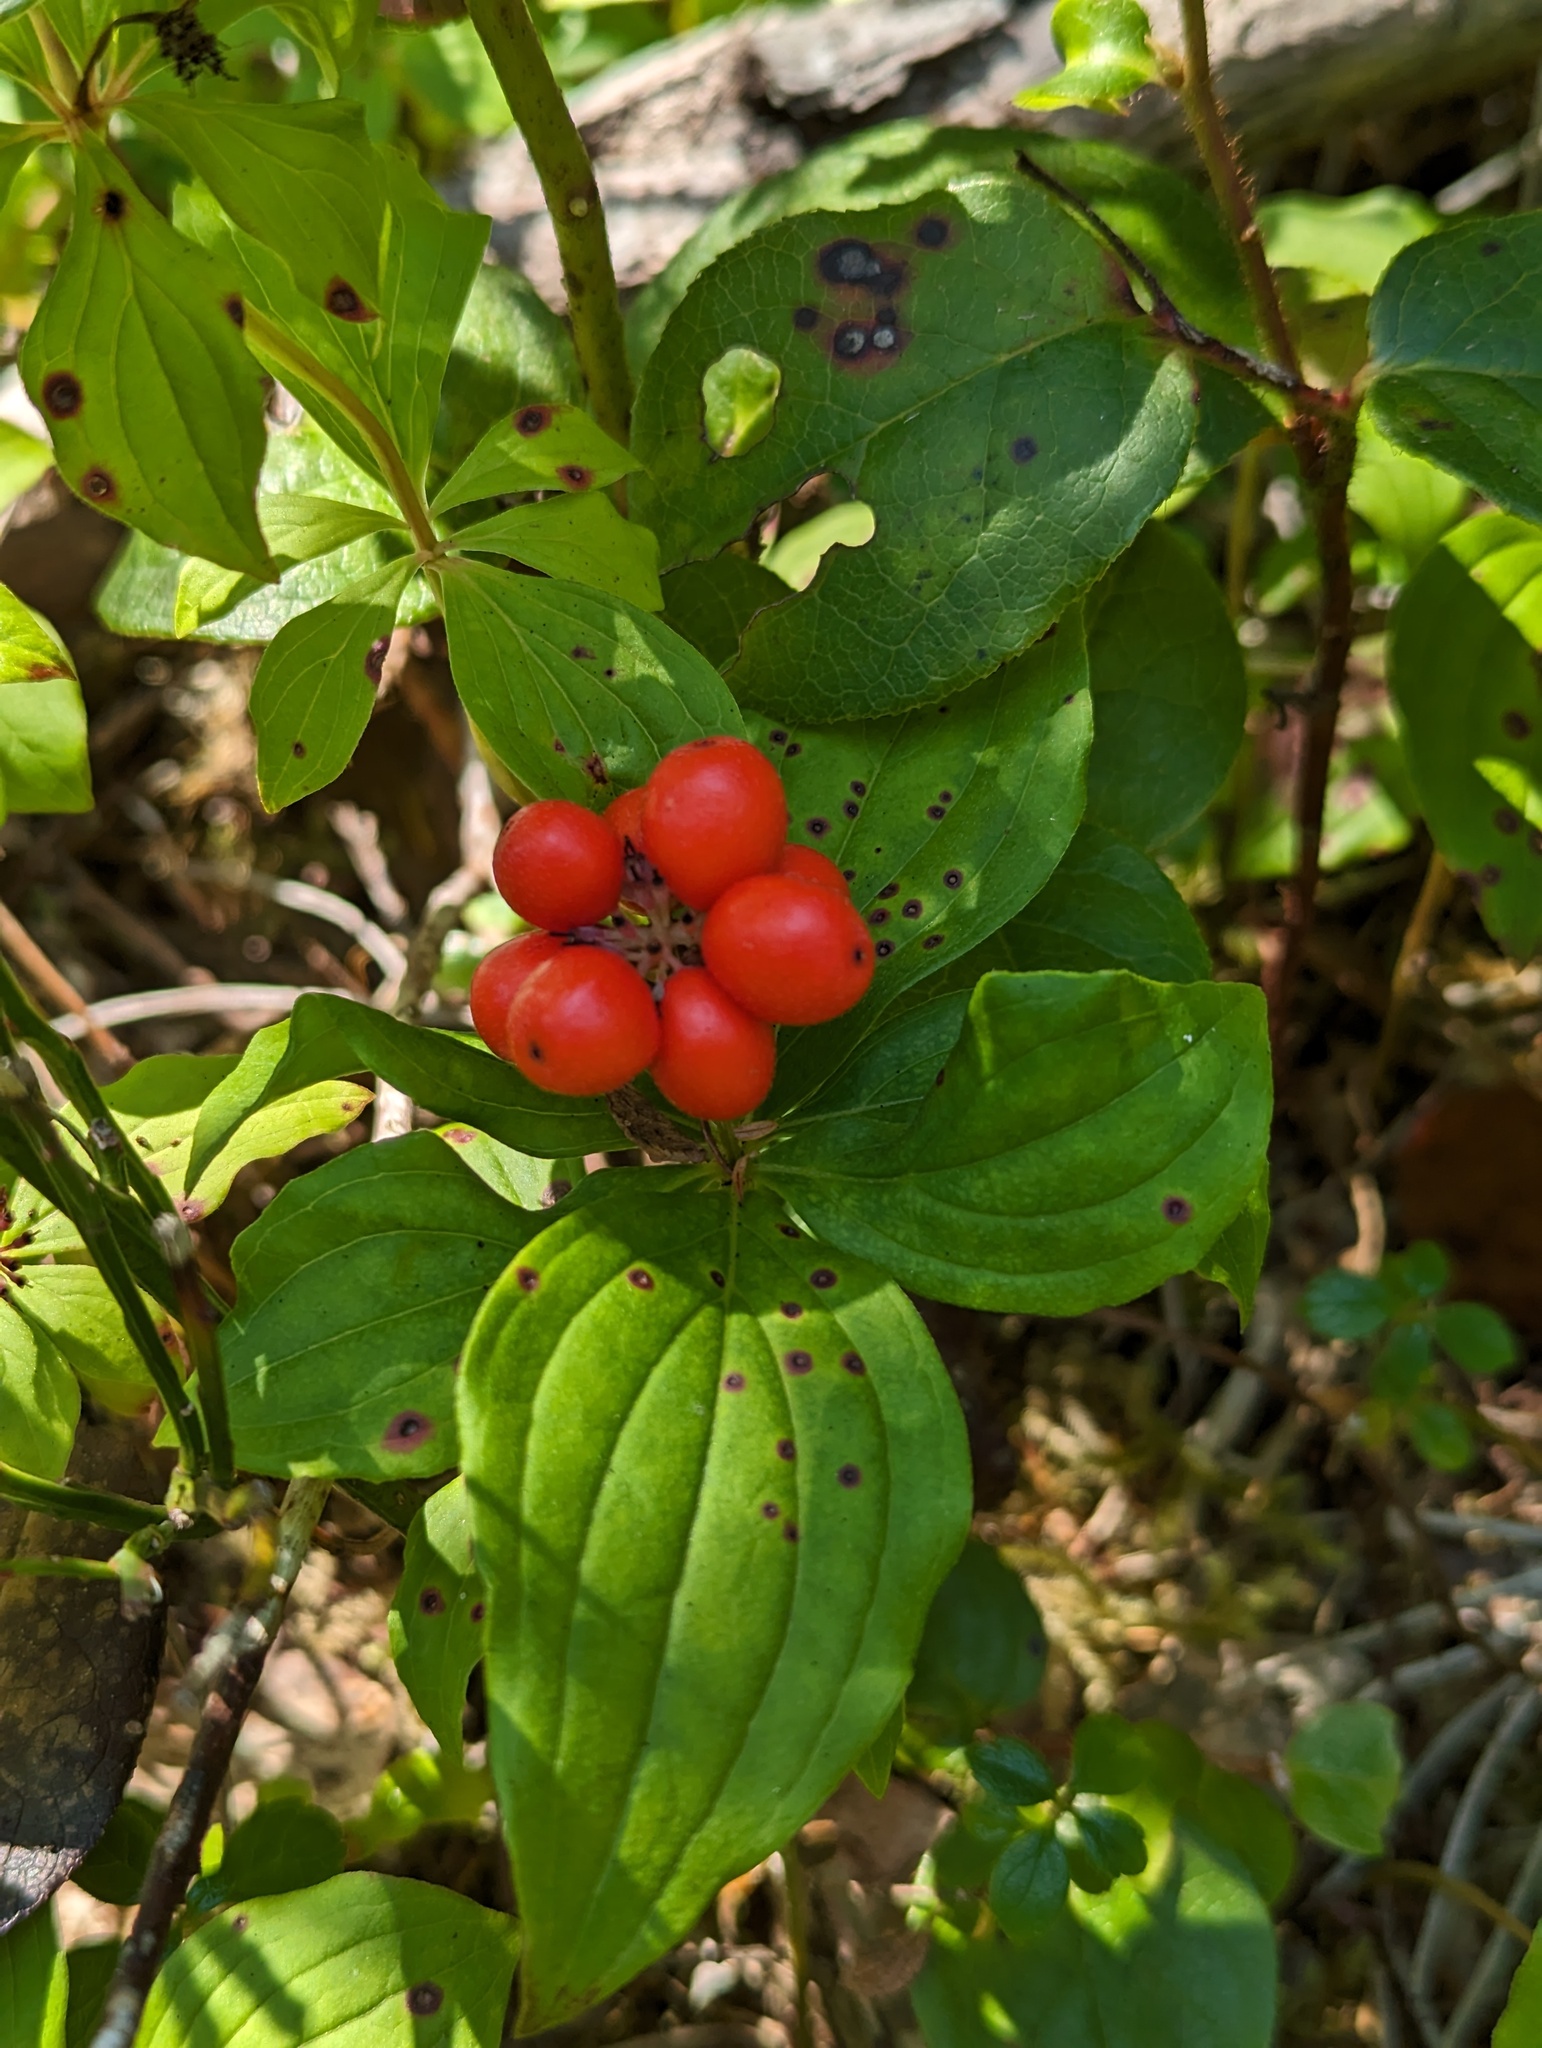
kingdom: Plantae
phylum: Tracheophyta
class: Magnoliopsida
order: Cornales
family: Cornaceae
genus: Cornus
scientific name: Cornus unalaschkensis
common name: Alaska bunchberry
